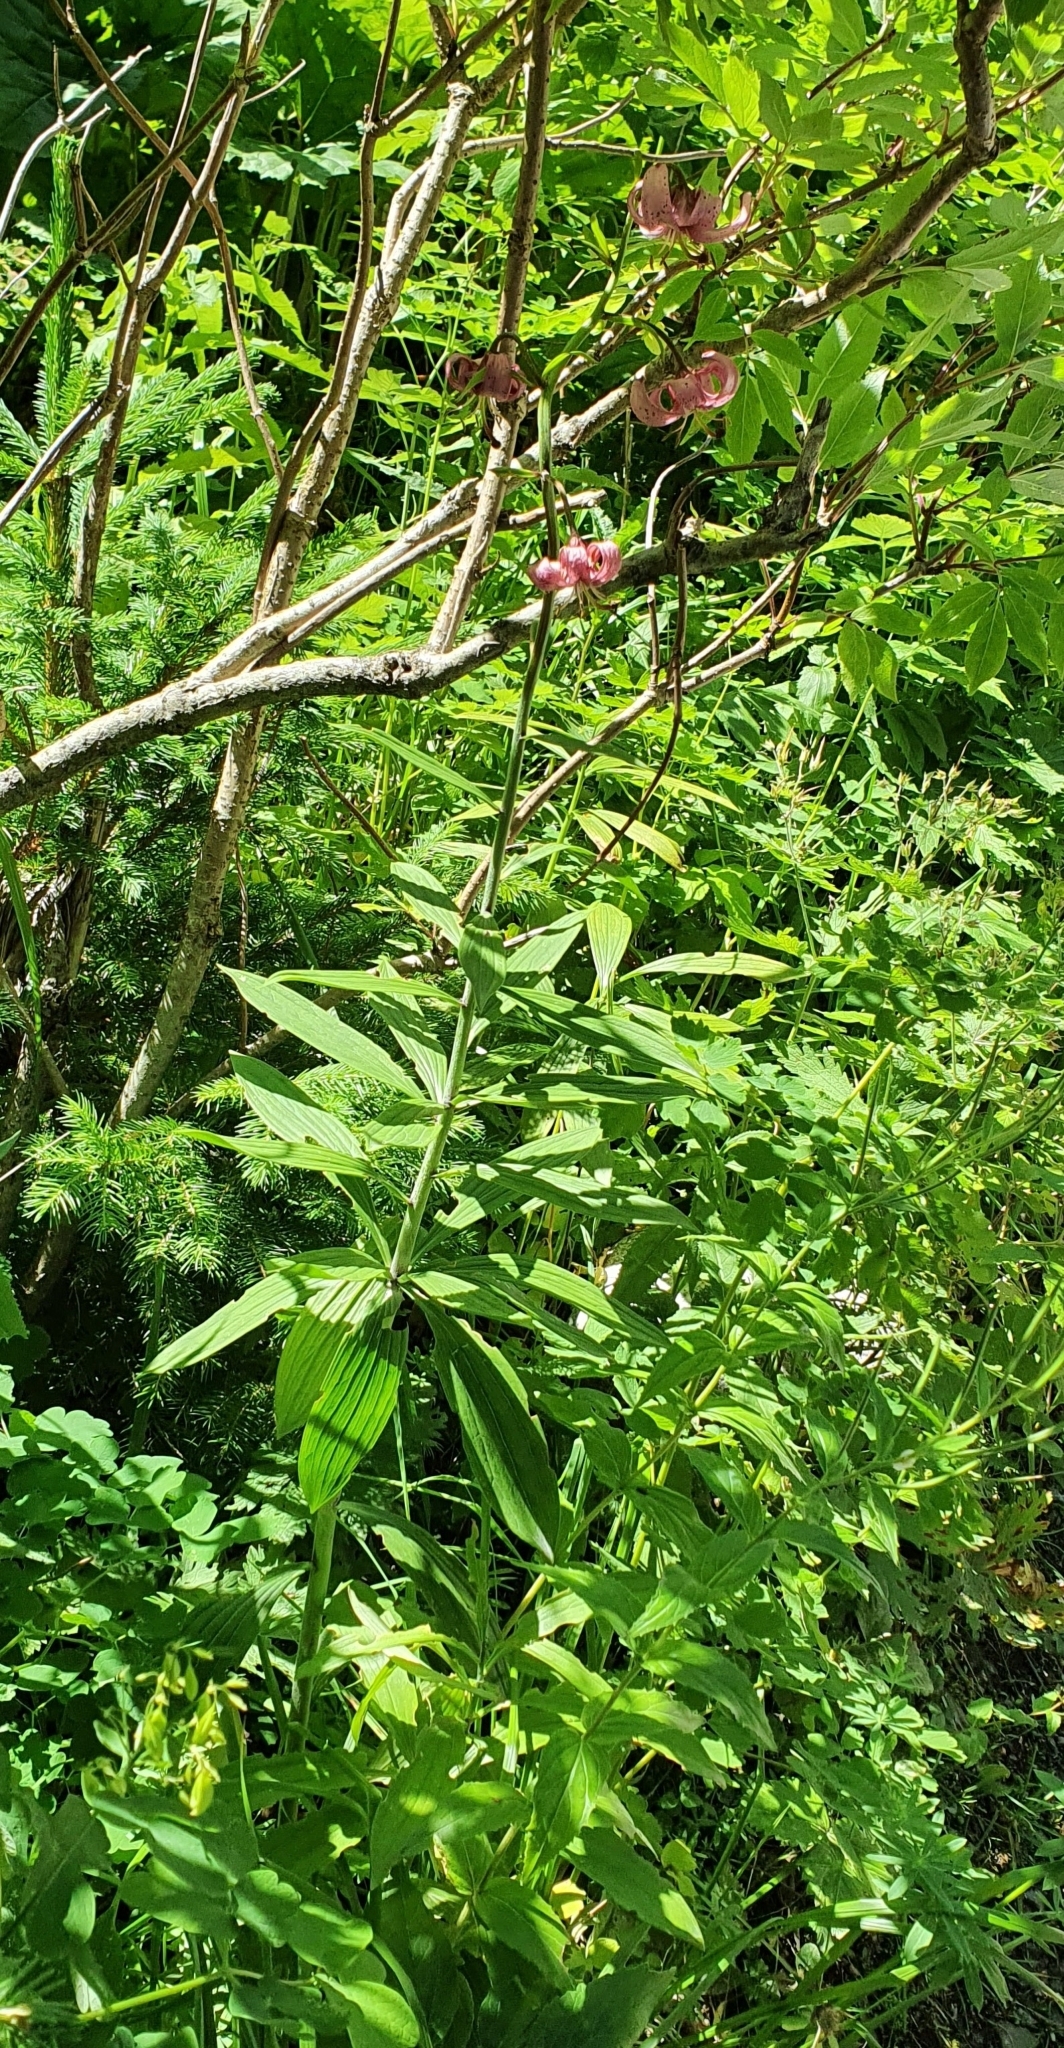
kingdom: Plantae
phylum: Tracheophyta
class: Liliopsida
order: Liliales
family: Liliaceae
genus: Lilium
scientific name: Lilium martagon
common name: Martagon lily
